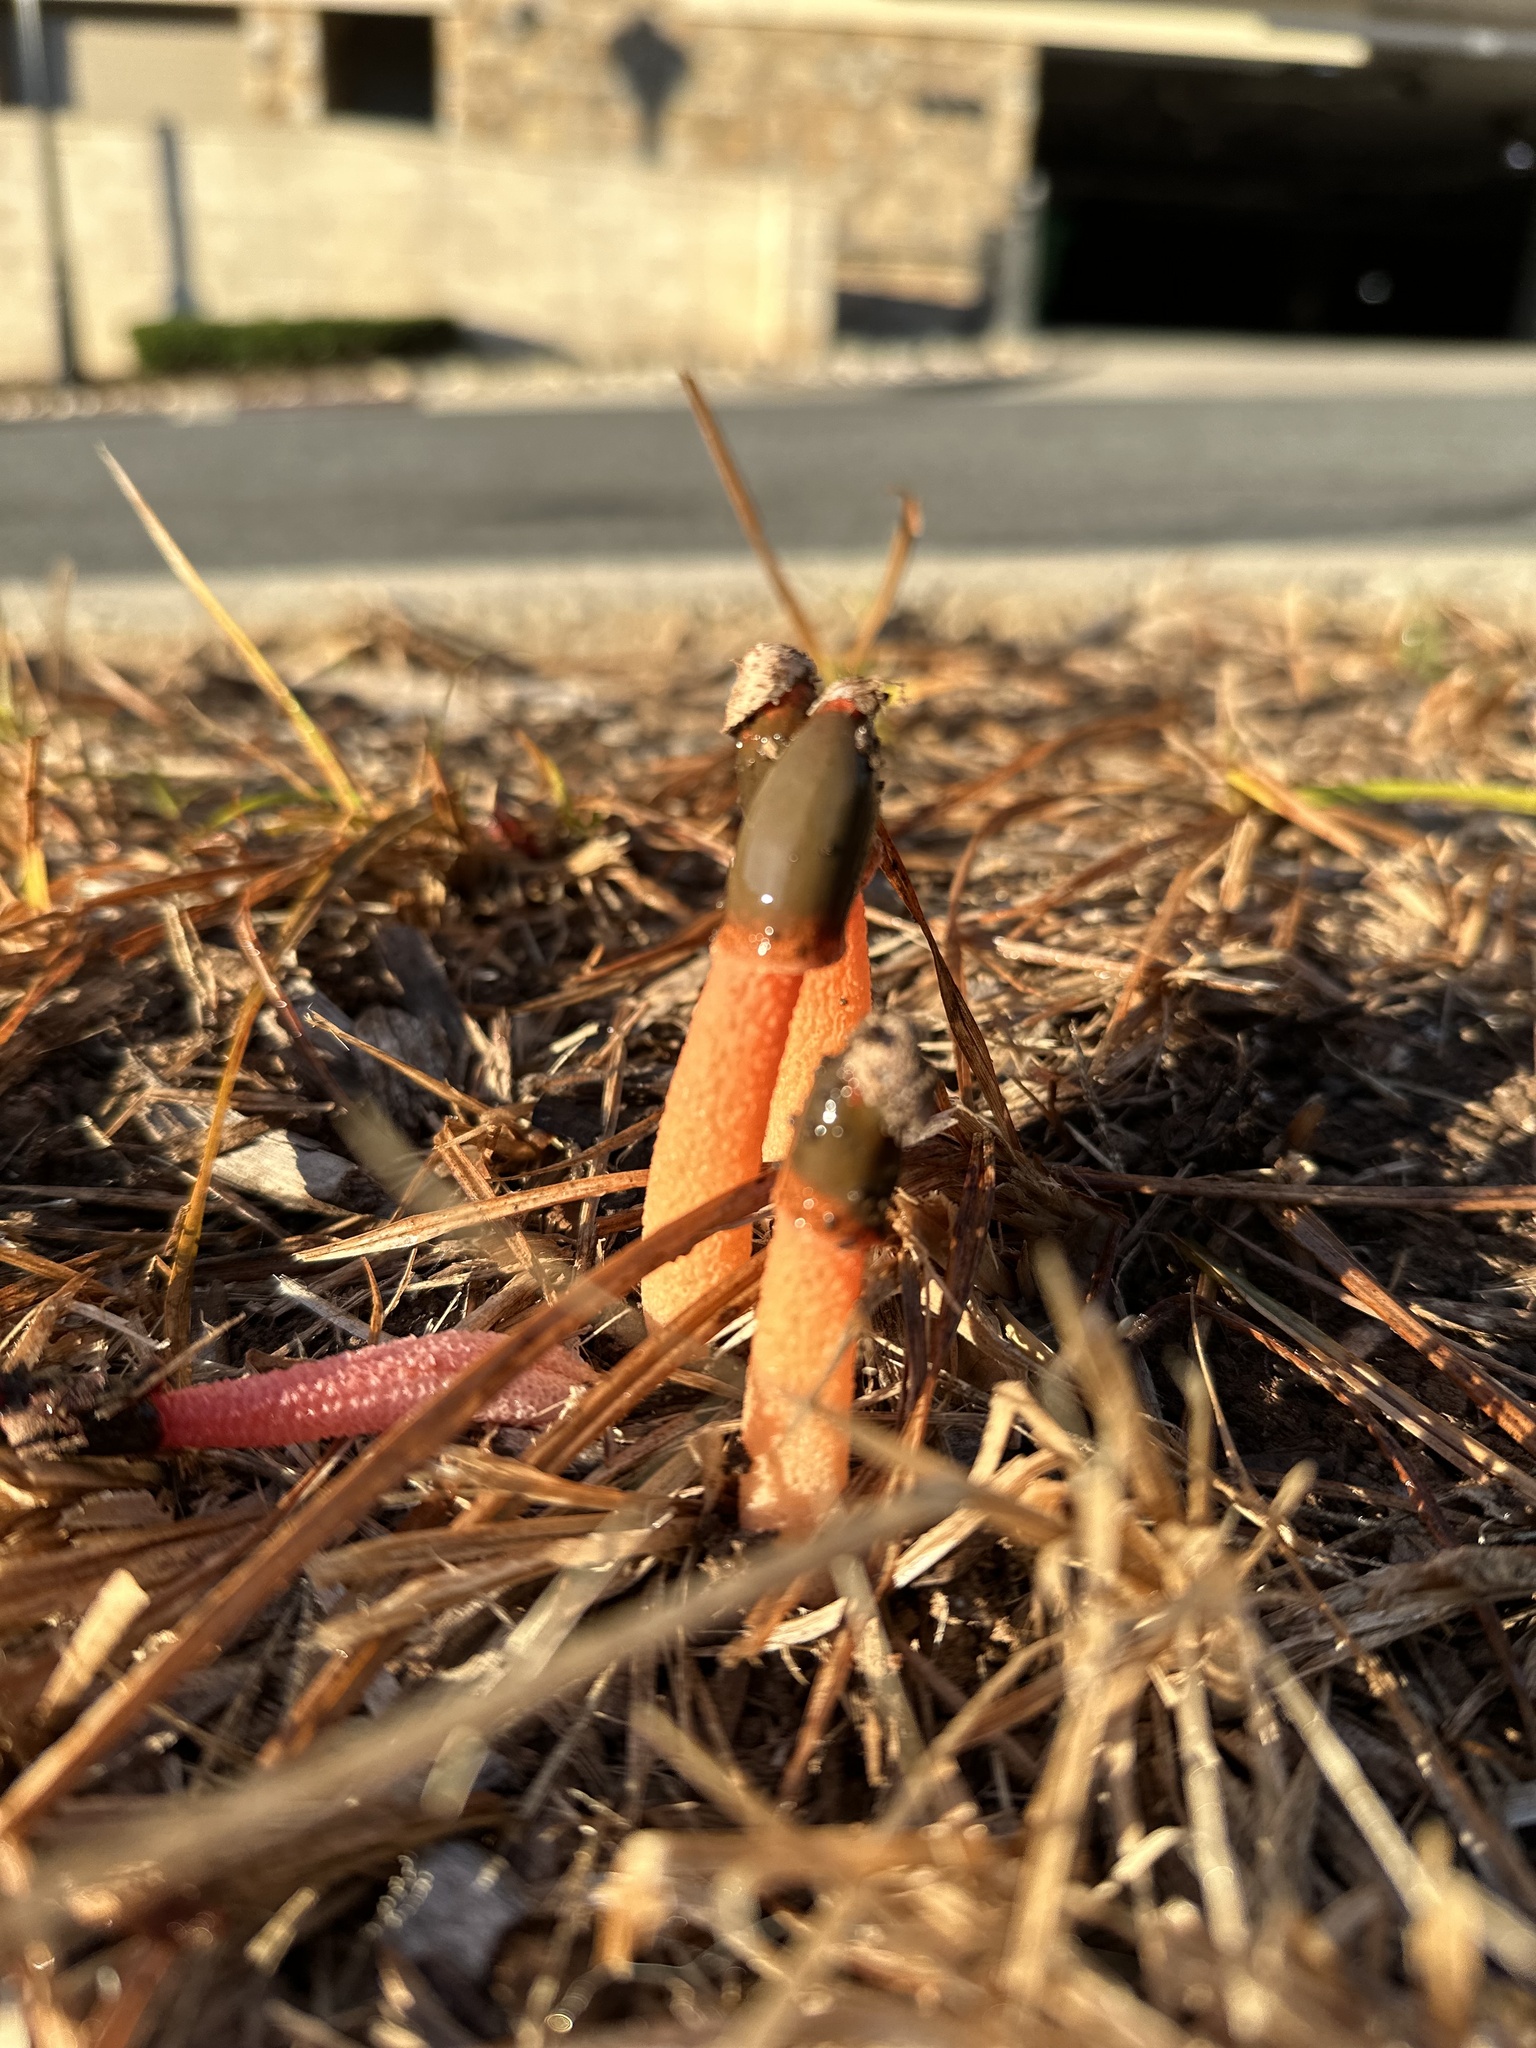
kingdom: Fungi
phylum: Basidiomycota
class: Agaricomycetes
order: Phallales
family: Phallaceae
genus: Phallus
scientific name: Phallus rugulosus
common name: Wrinkly stinkhorn
